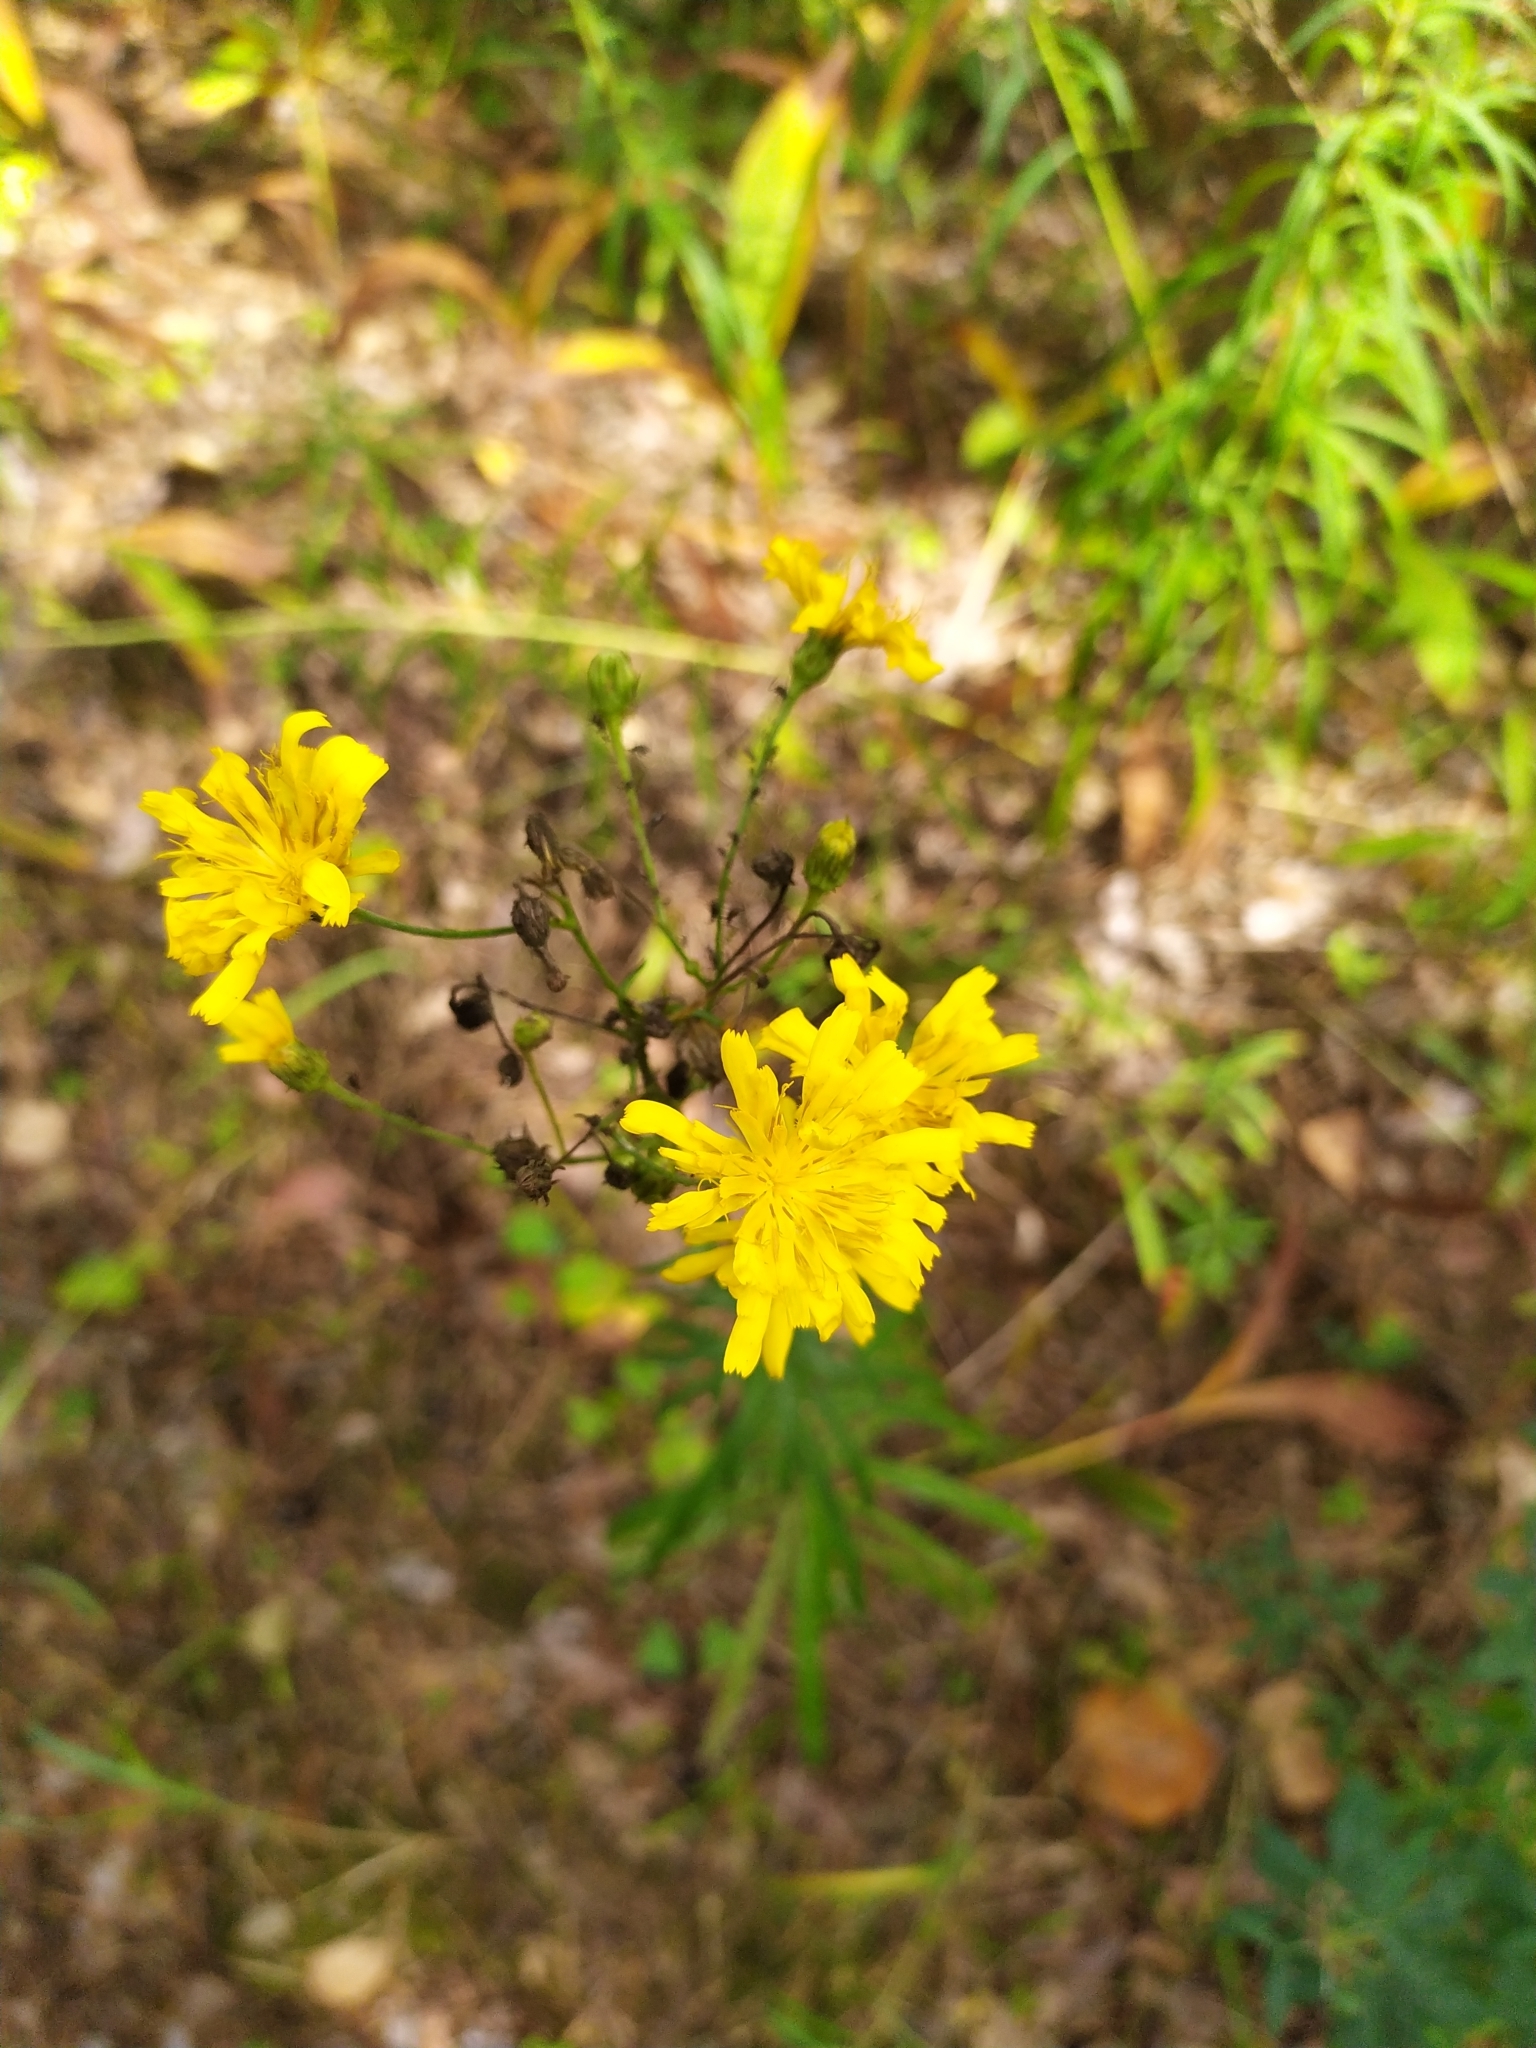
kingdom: Plantae
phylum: Tracheophyta
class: Magnoliopsida
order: Asterales
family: Asteraceae
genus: Hieracium
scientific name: Hieracium umbellatum
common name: Northern hawkweed
